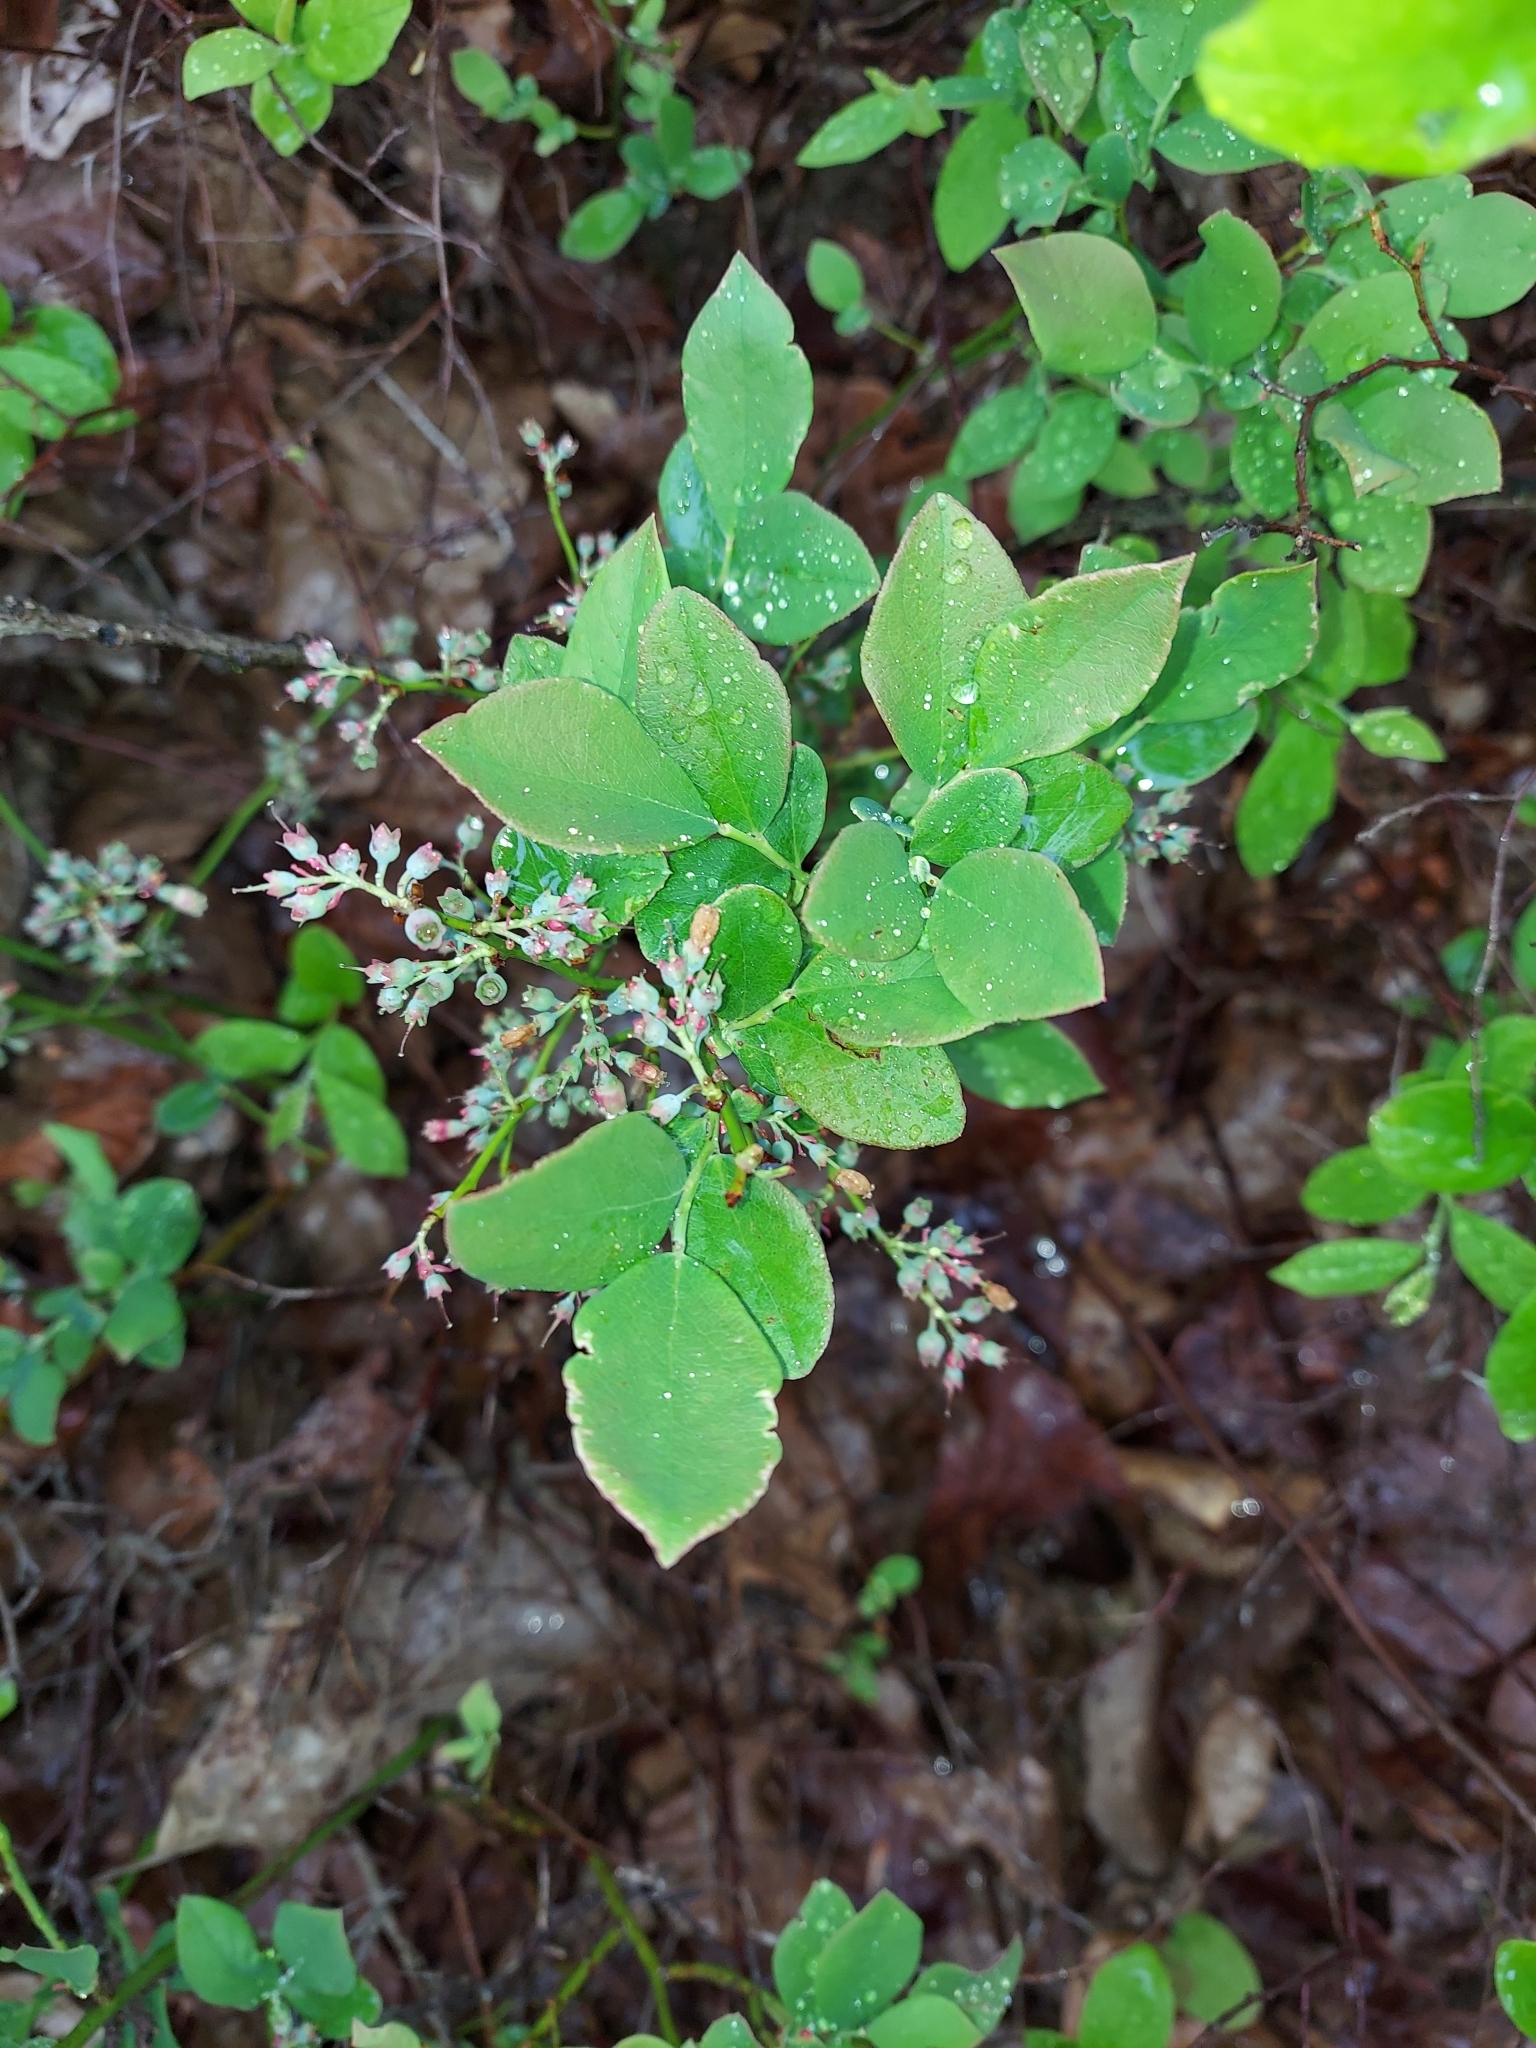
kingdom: Plantae
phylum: Tracheophyta
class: Magnoliopsida
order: Ericales
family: Ericaceae
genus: Vaccinium
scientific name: Vaccinium pallidum
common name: Blue ridge blueberry
